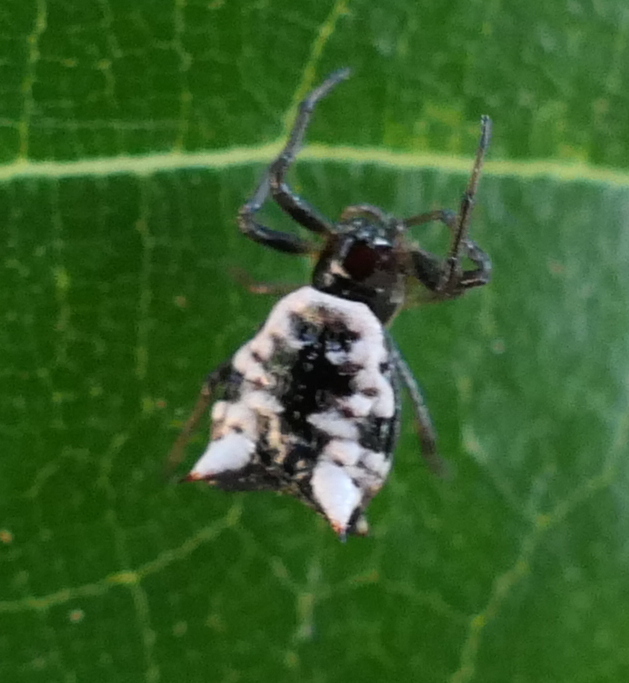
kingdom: Animalia
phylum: Arthropoda
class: Arachnida
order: Araneae
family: Araneidae
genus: Micrathena
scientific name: Micrathena patruelis
